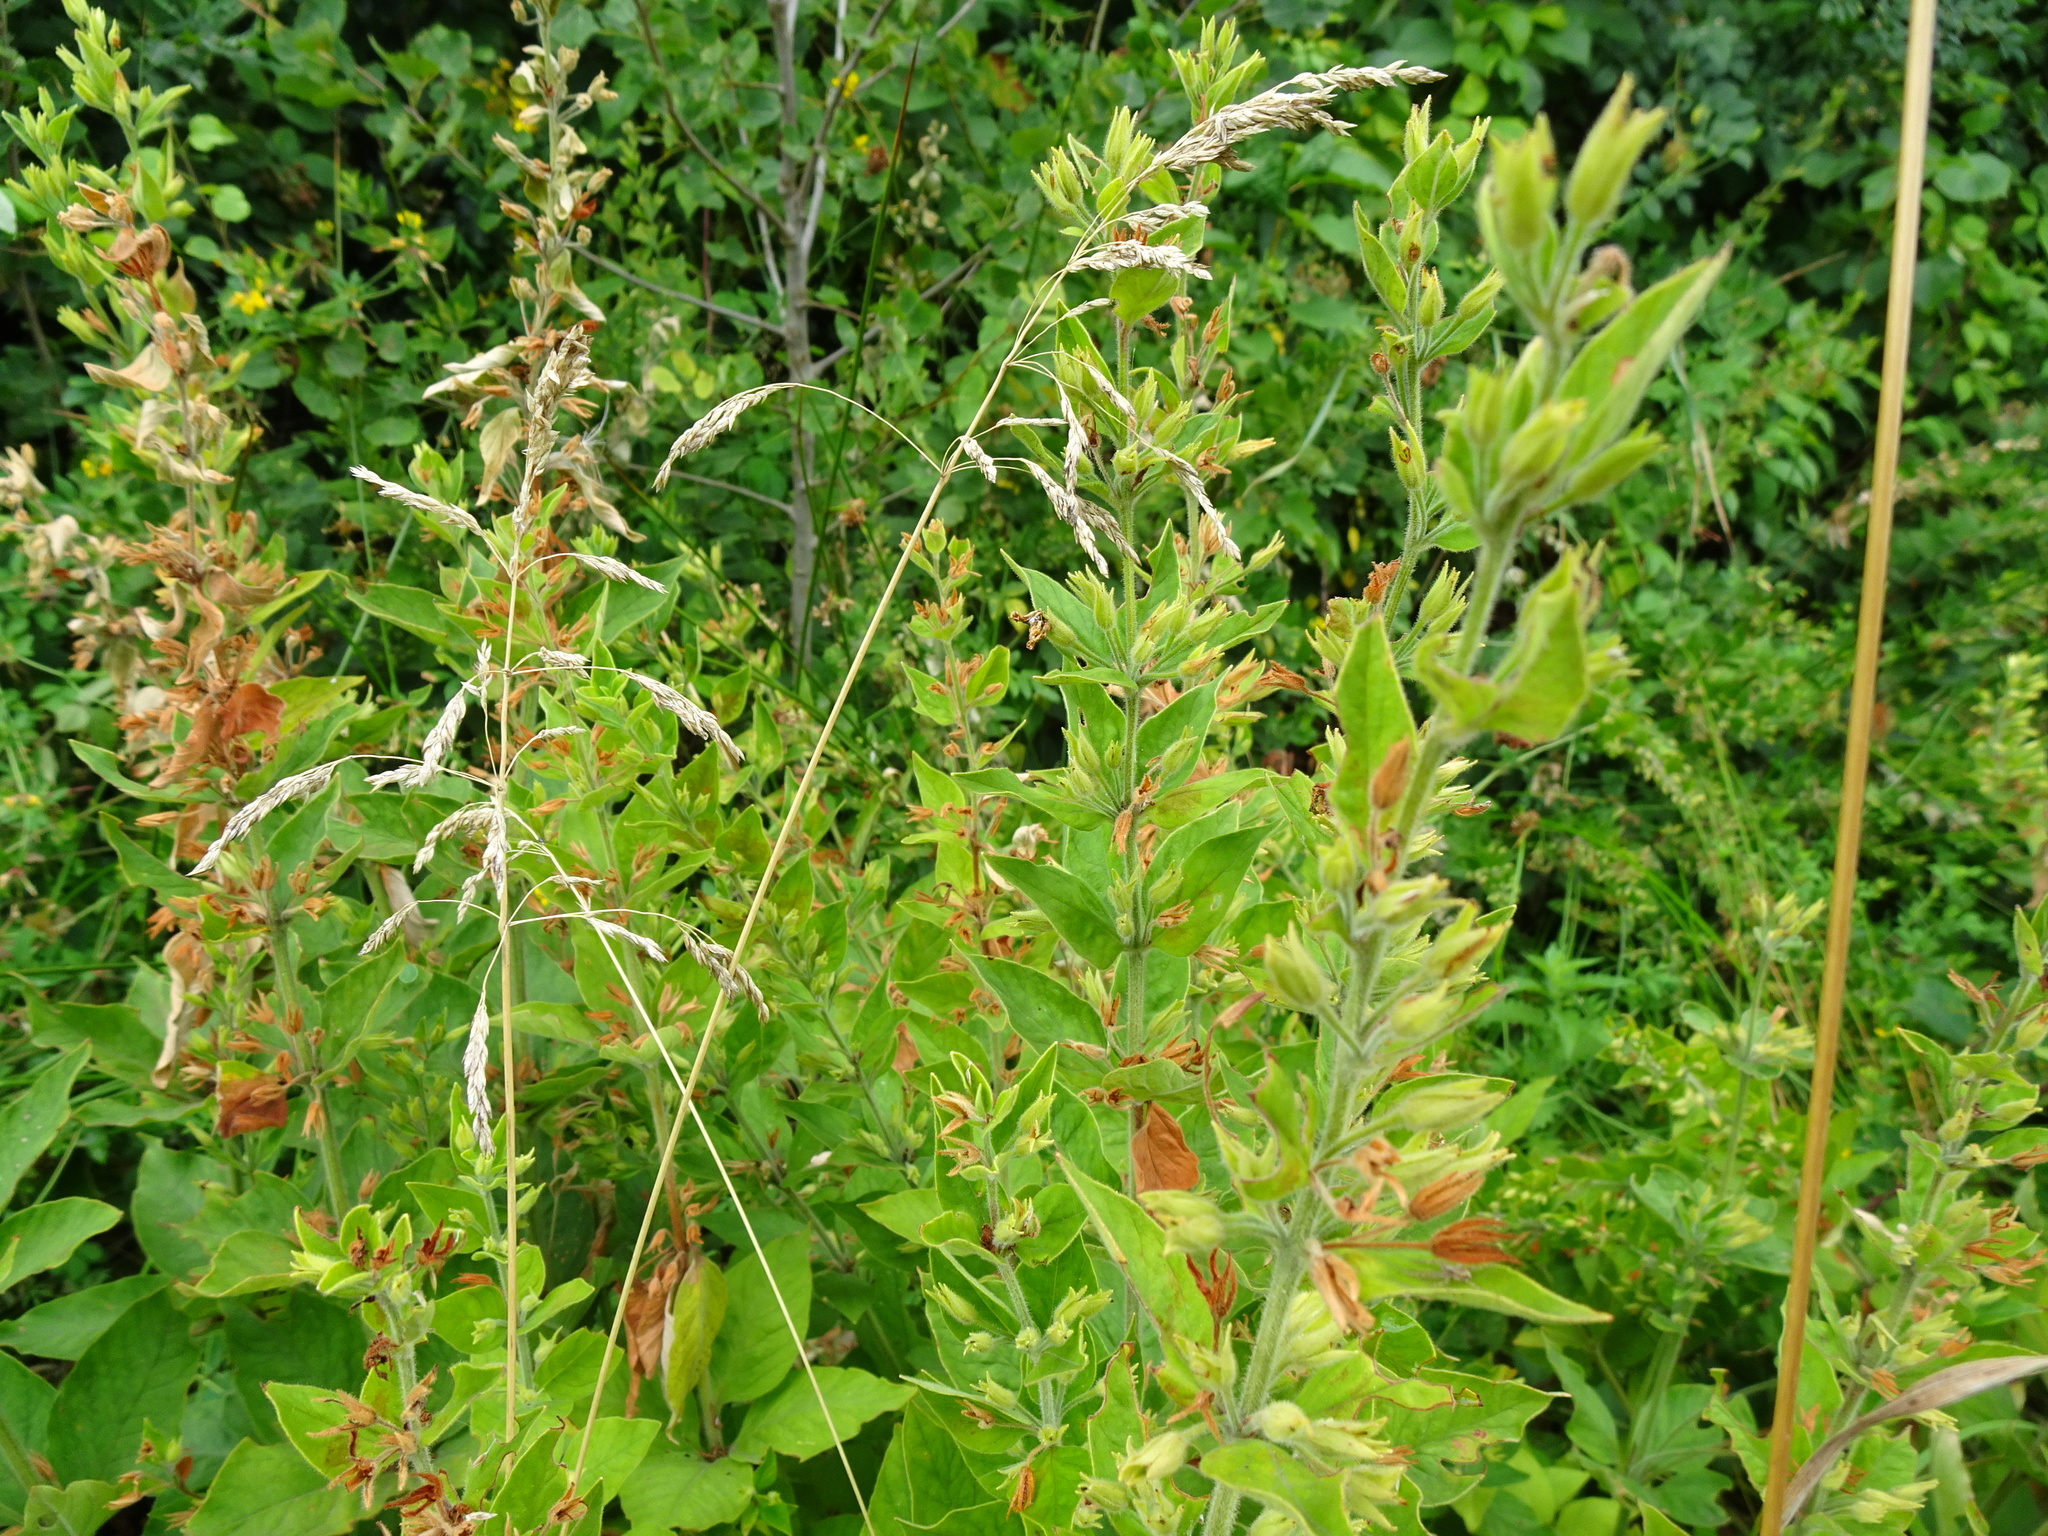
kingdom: Plantae
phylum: Tracheophyta
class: Magnoliopsida
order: Ericales
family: Primulaceae
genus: Lysimachia
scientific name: Lysimachia punctata
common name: Dotted loosestrife
